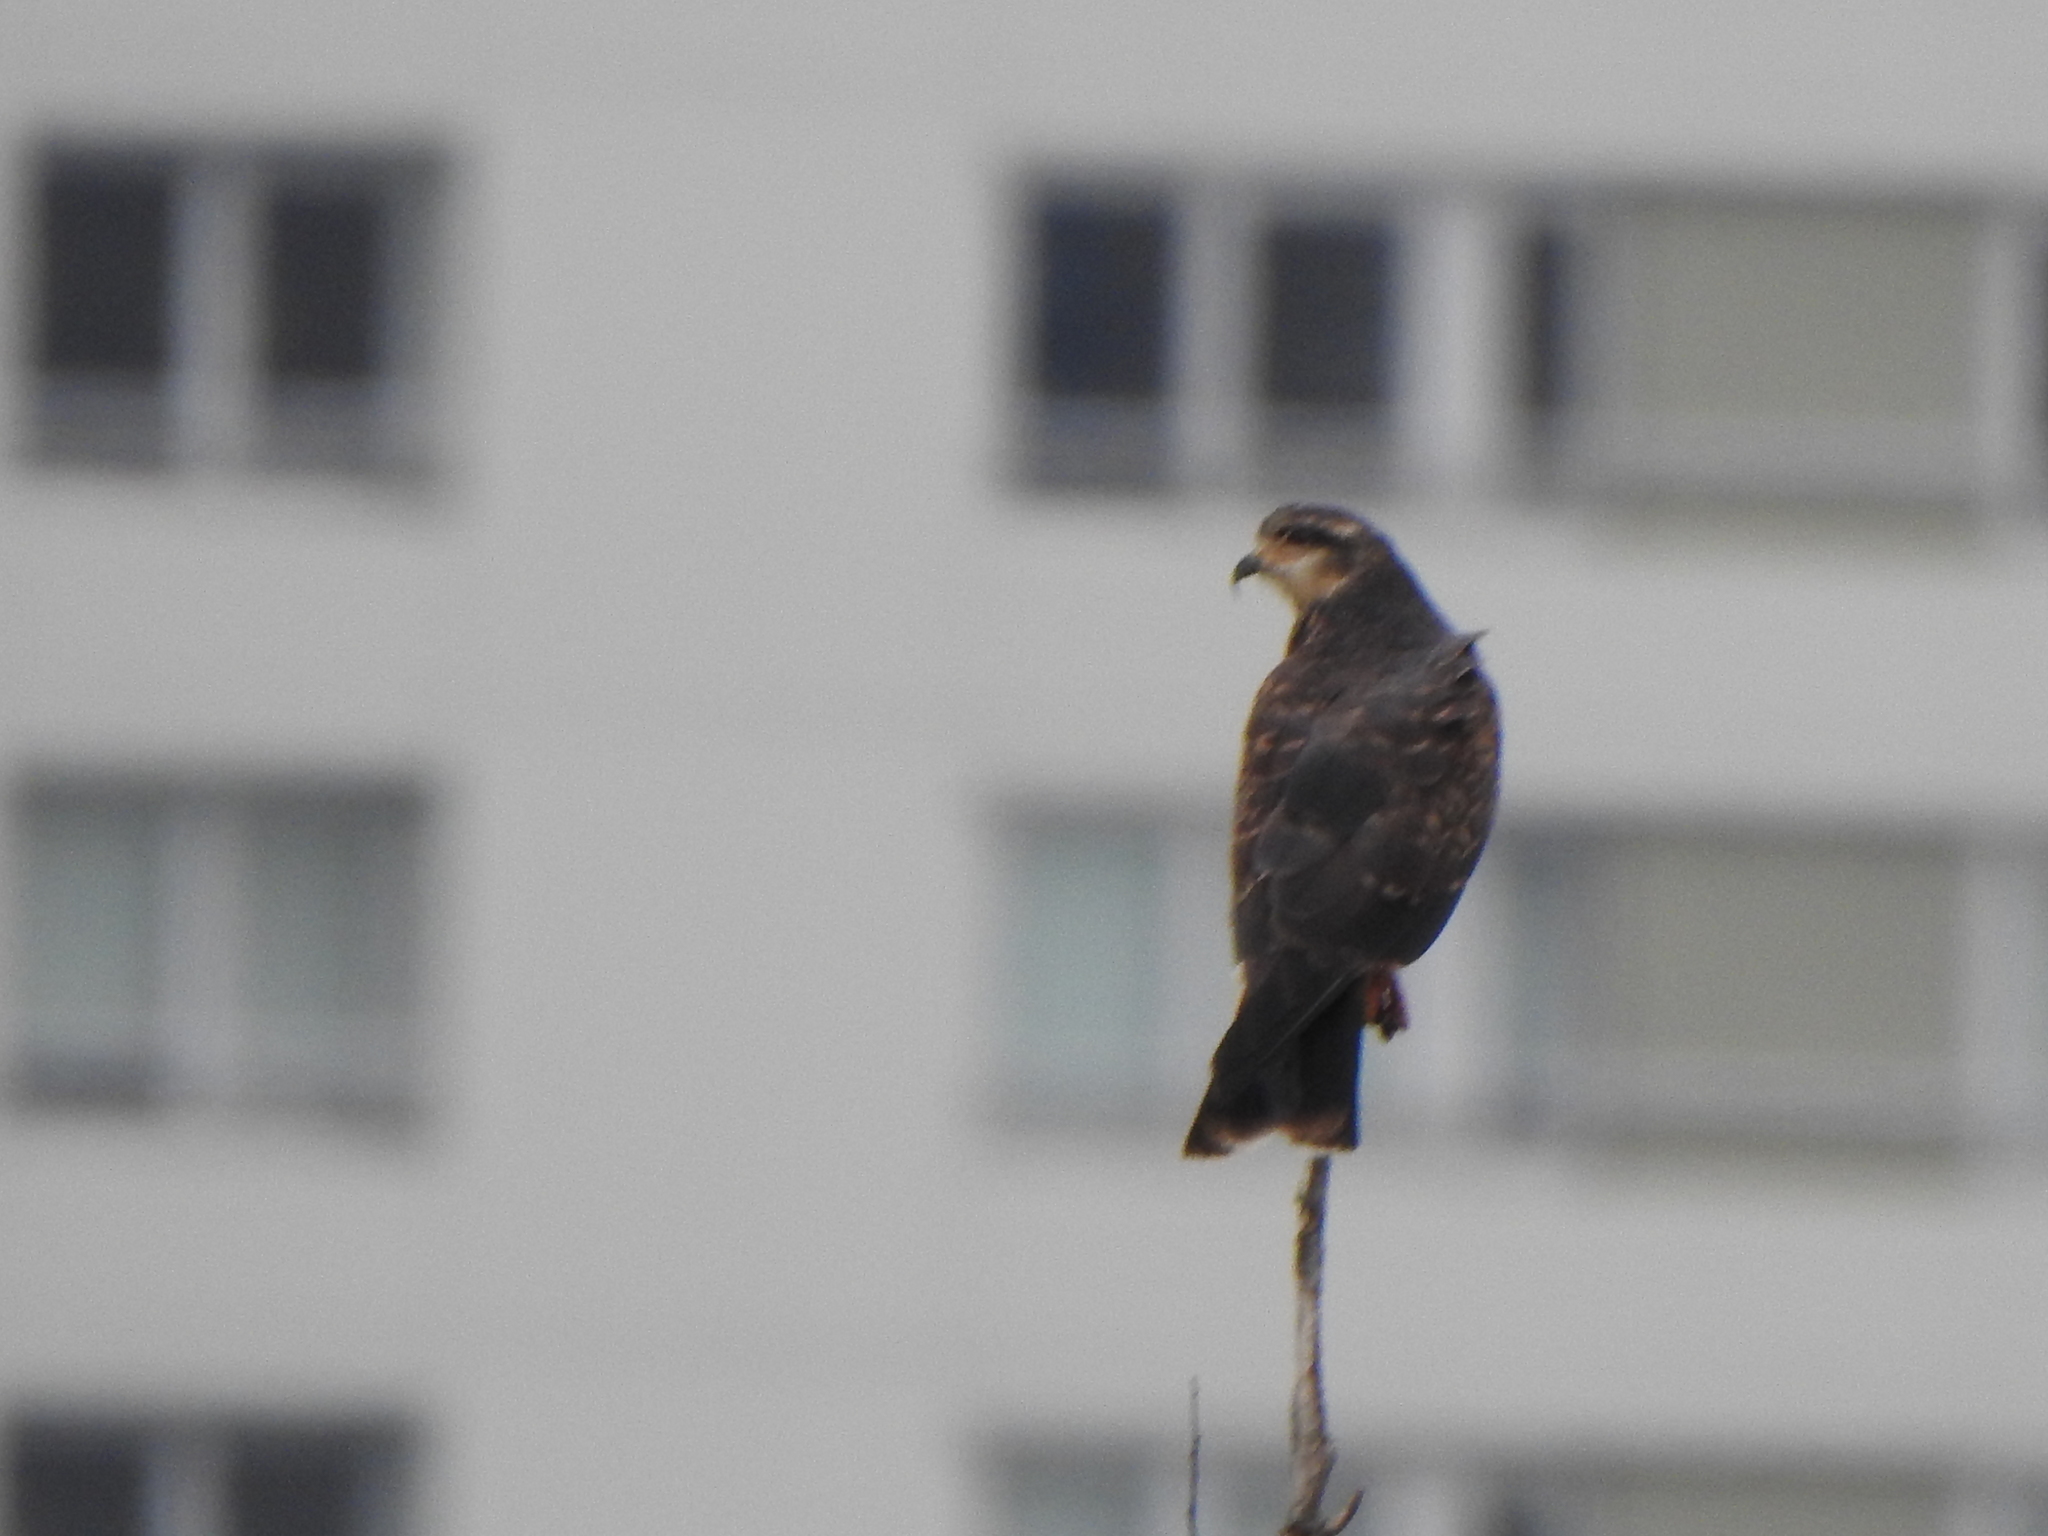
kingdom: Animalia
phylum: Chordata
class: Aves
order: Accipitriformes
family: Accipitridae
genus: Rostrhamus
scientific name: Rostrhamus sociabilis
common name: Snail kite
